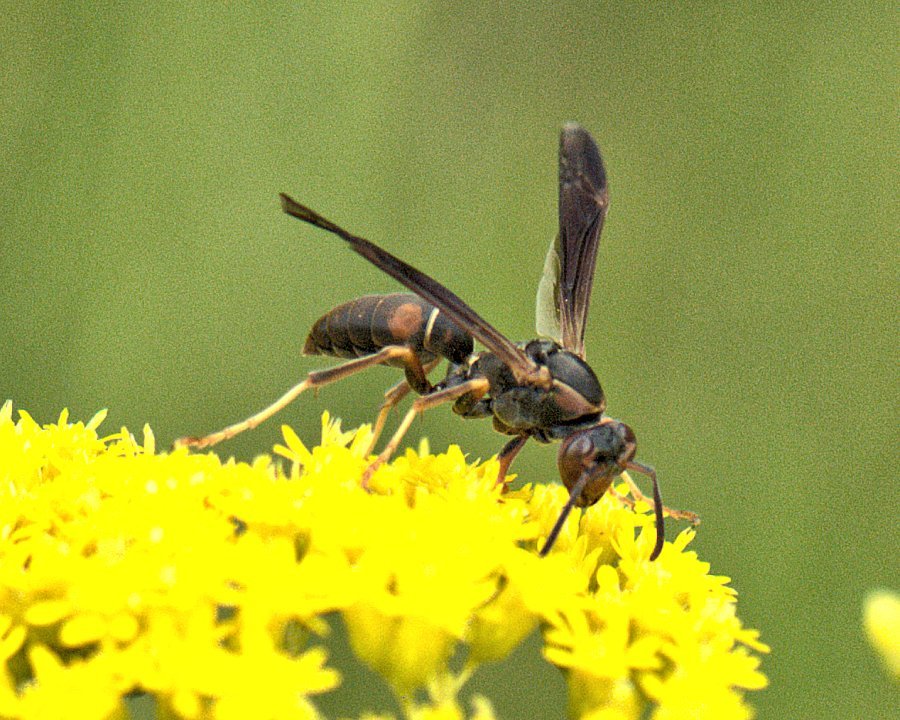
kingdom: Animalia
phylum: Arthropoda
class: Insecta
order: Hymenoptera
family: Eumenidae
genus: Polistes
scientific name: Polistes fuscatus
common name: Dark paper wasp
